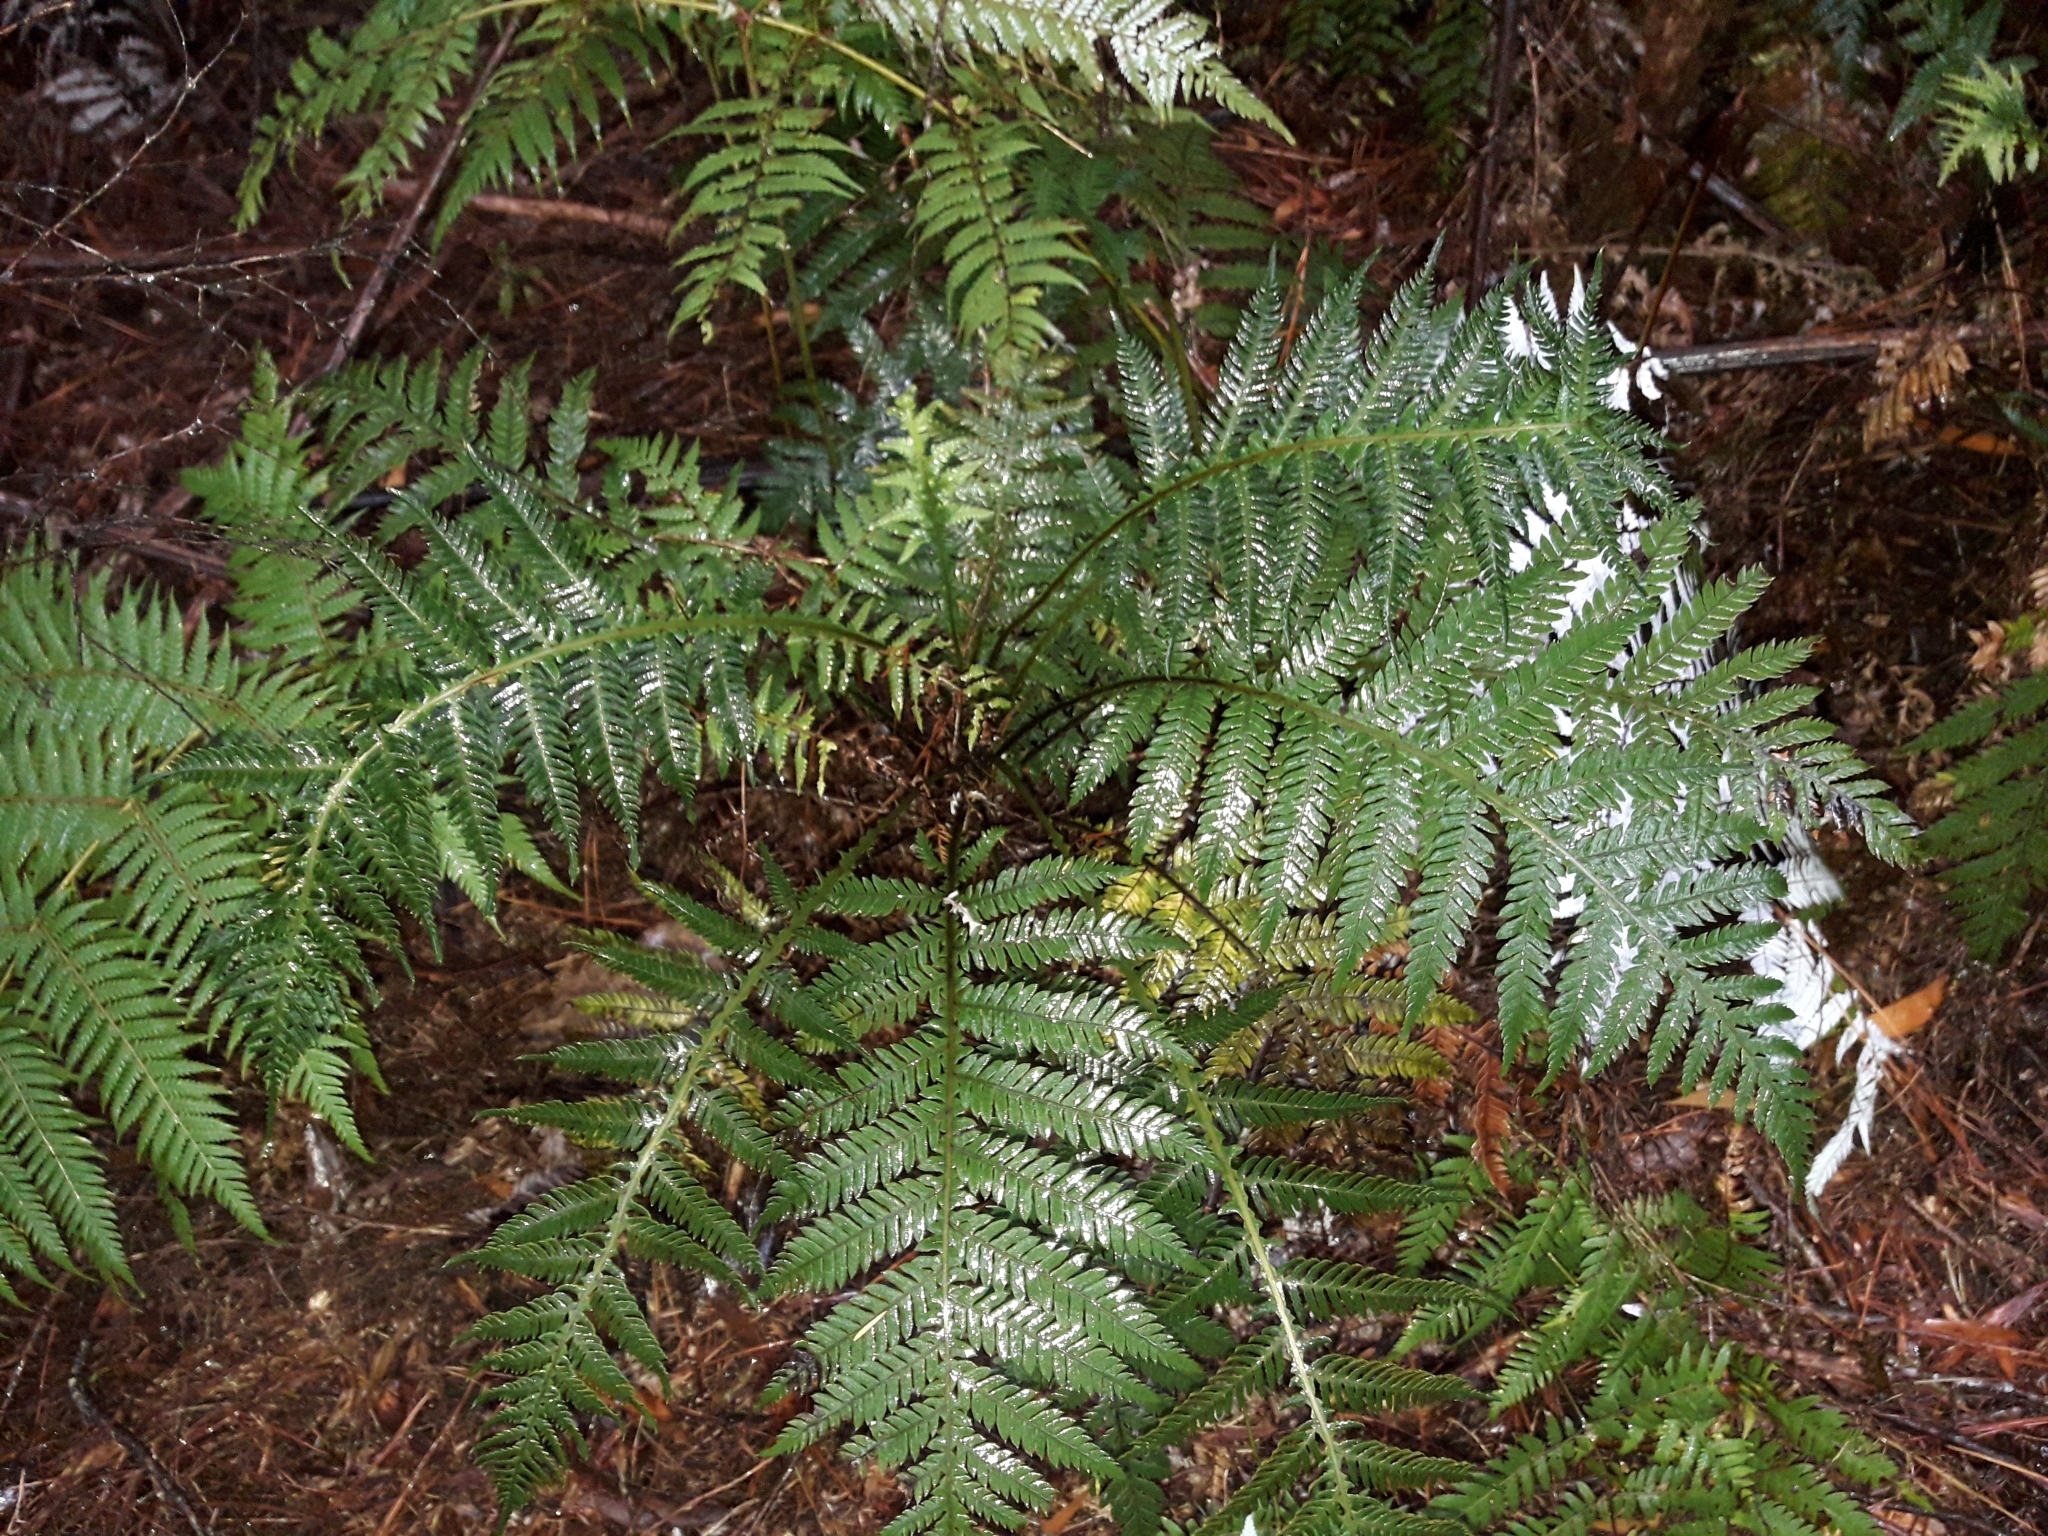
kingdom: Plantae
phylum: Tracheophyta
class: Polypodiopsida
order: Polypodiales
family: Blechnaceae
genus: Diploblechnum
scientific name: Diploblechnum fraseri
